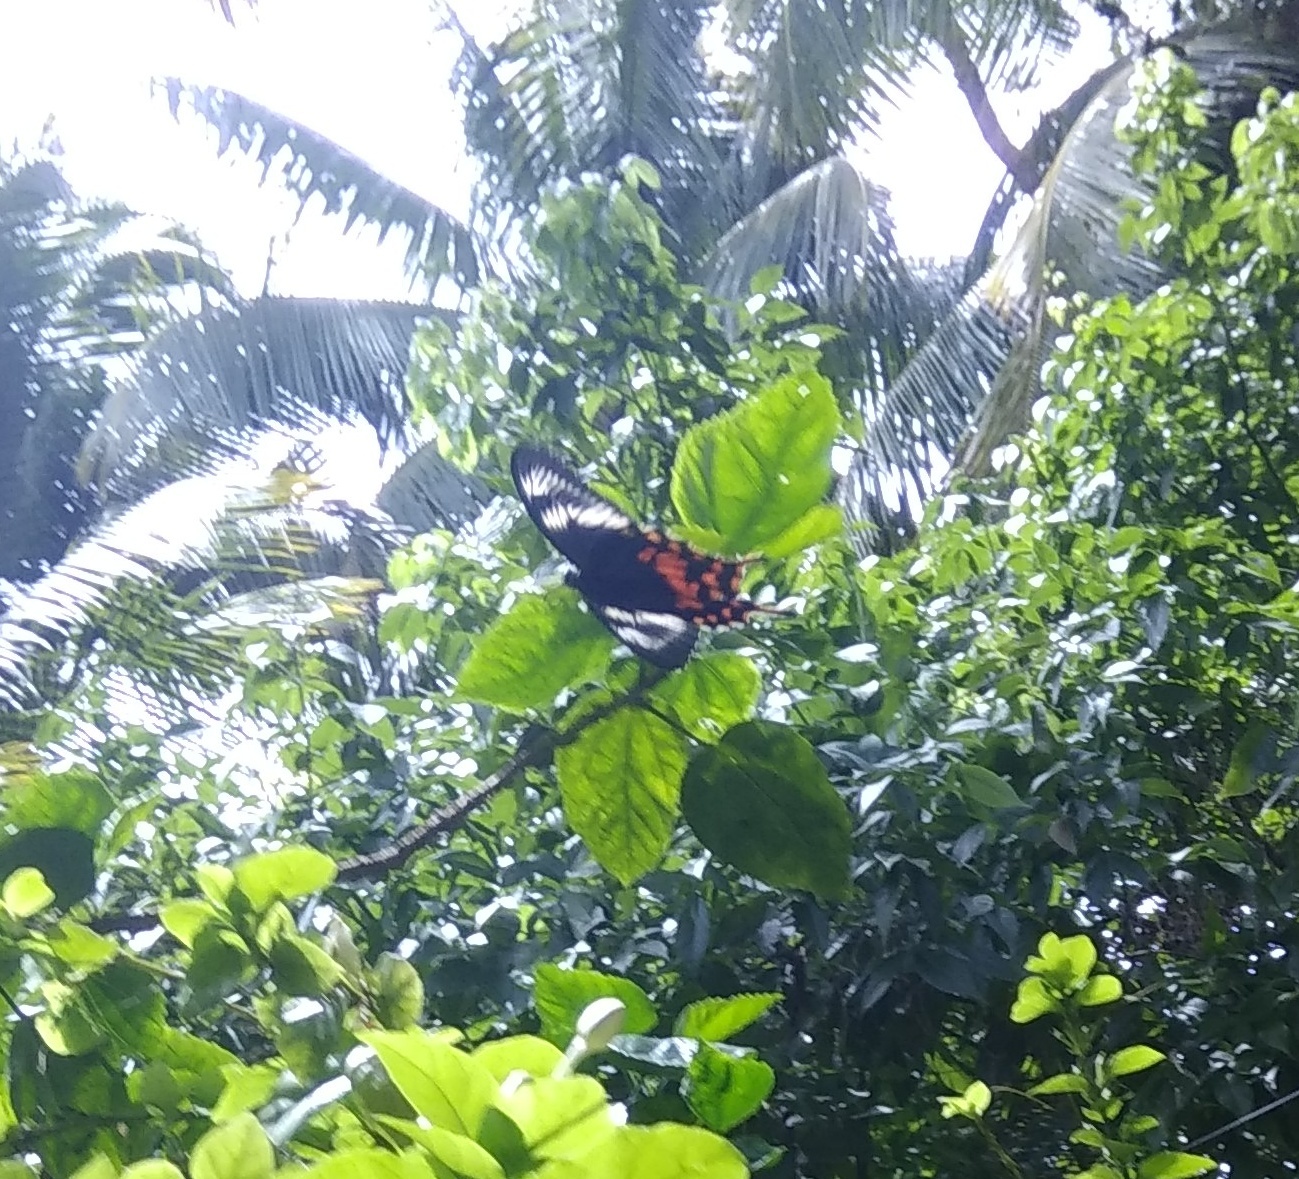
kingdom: Animalia
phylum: Arthropoda
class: Insecta
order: Lepidoptera
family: Papilionidae
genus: Papilio
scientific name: Papilio polytes
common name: Common mormon
